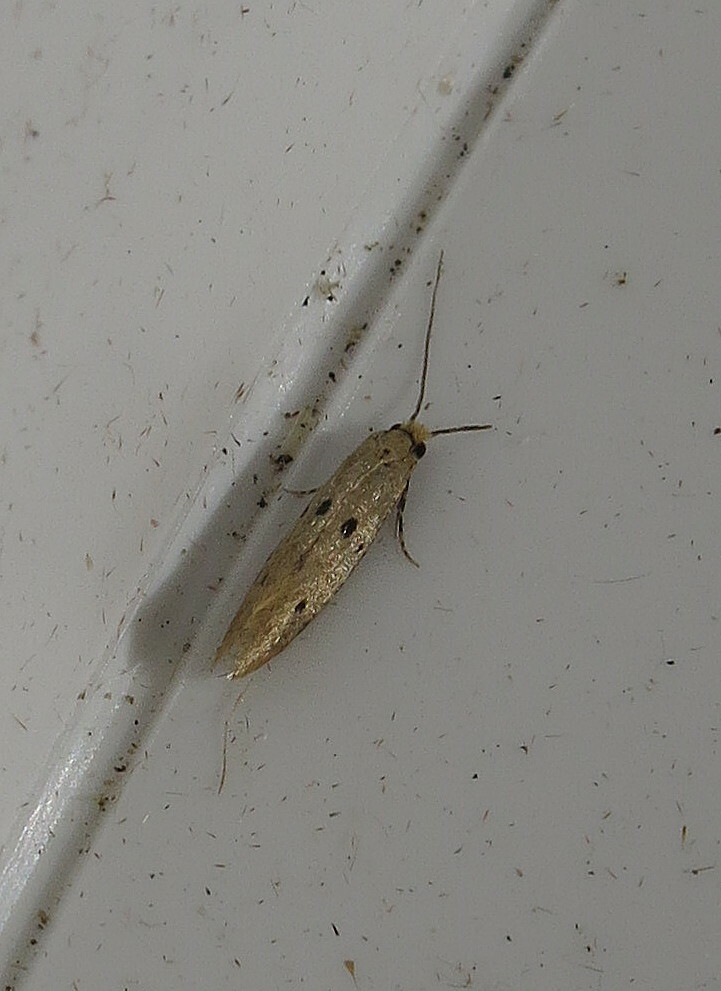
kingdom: Animalia
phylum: Arthropoda
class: Insecta
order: Lepidoptera
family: Tineidae
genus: Tinea
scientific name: Tinea trinotella
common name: Bird's-nest moth
